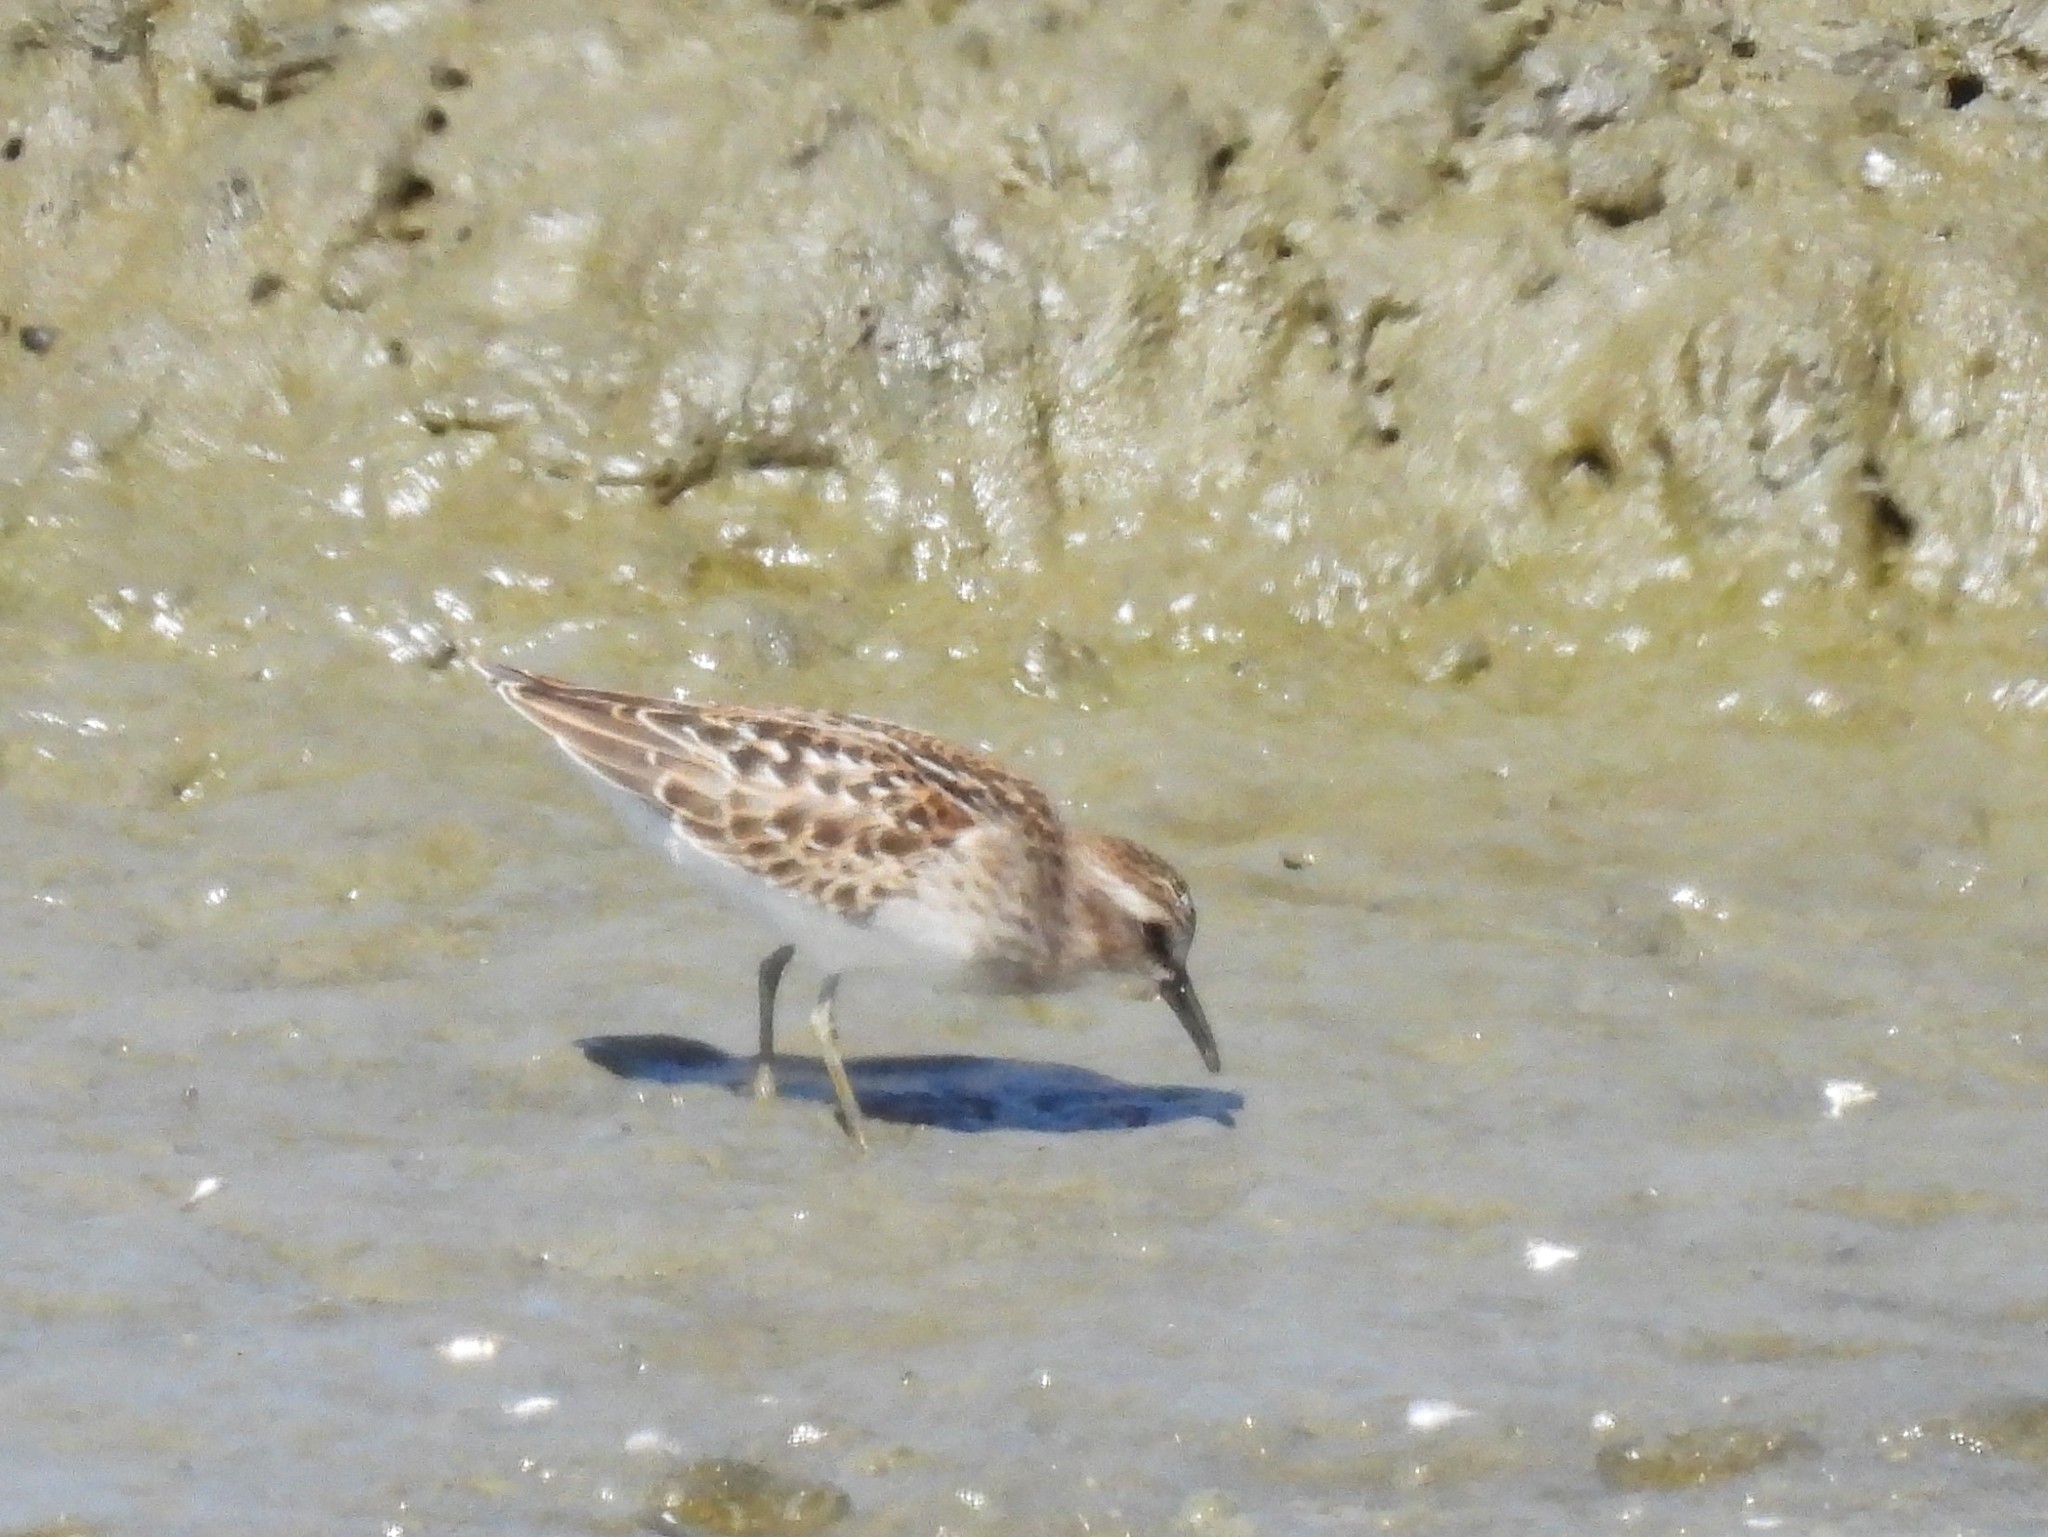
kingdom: Animalia
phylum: Chordata
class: Aves
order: Charadriiformes
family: Scolopacidae
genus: Calidris
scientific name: Calidris minutilla
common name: Least sandpiper
